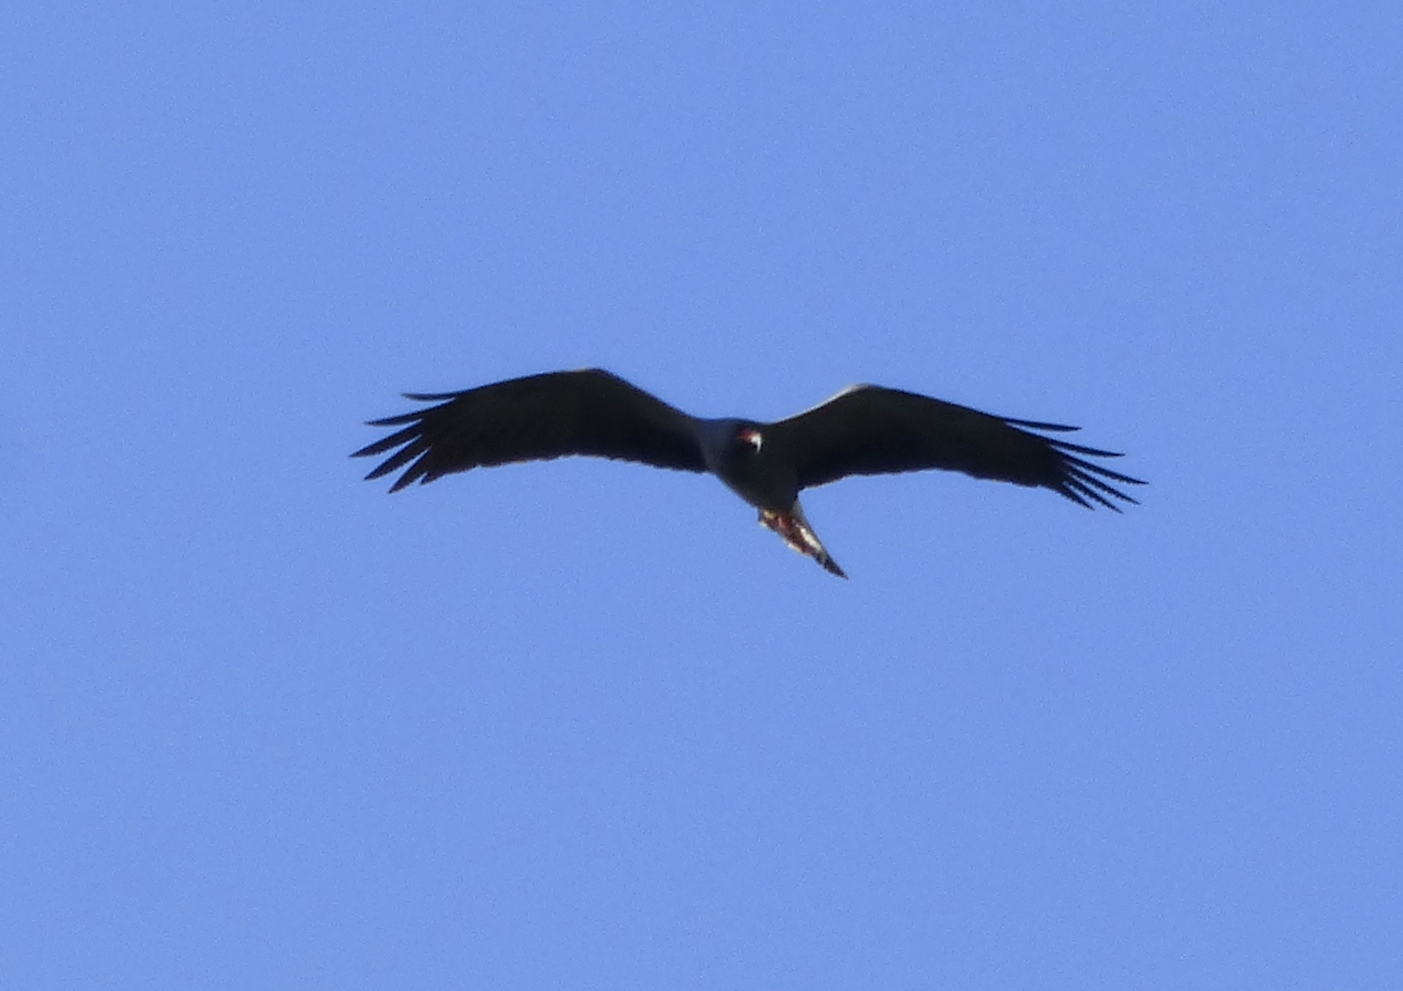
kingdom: Animalia
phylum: Chordata
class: Aves
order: Accipitriformes
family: Accipitridae
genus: Rostrhamus
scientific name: Rostrhamus sociabilis
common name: Snail kite
